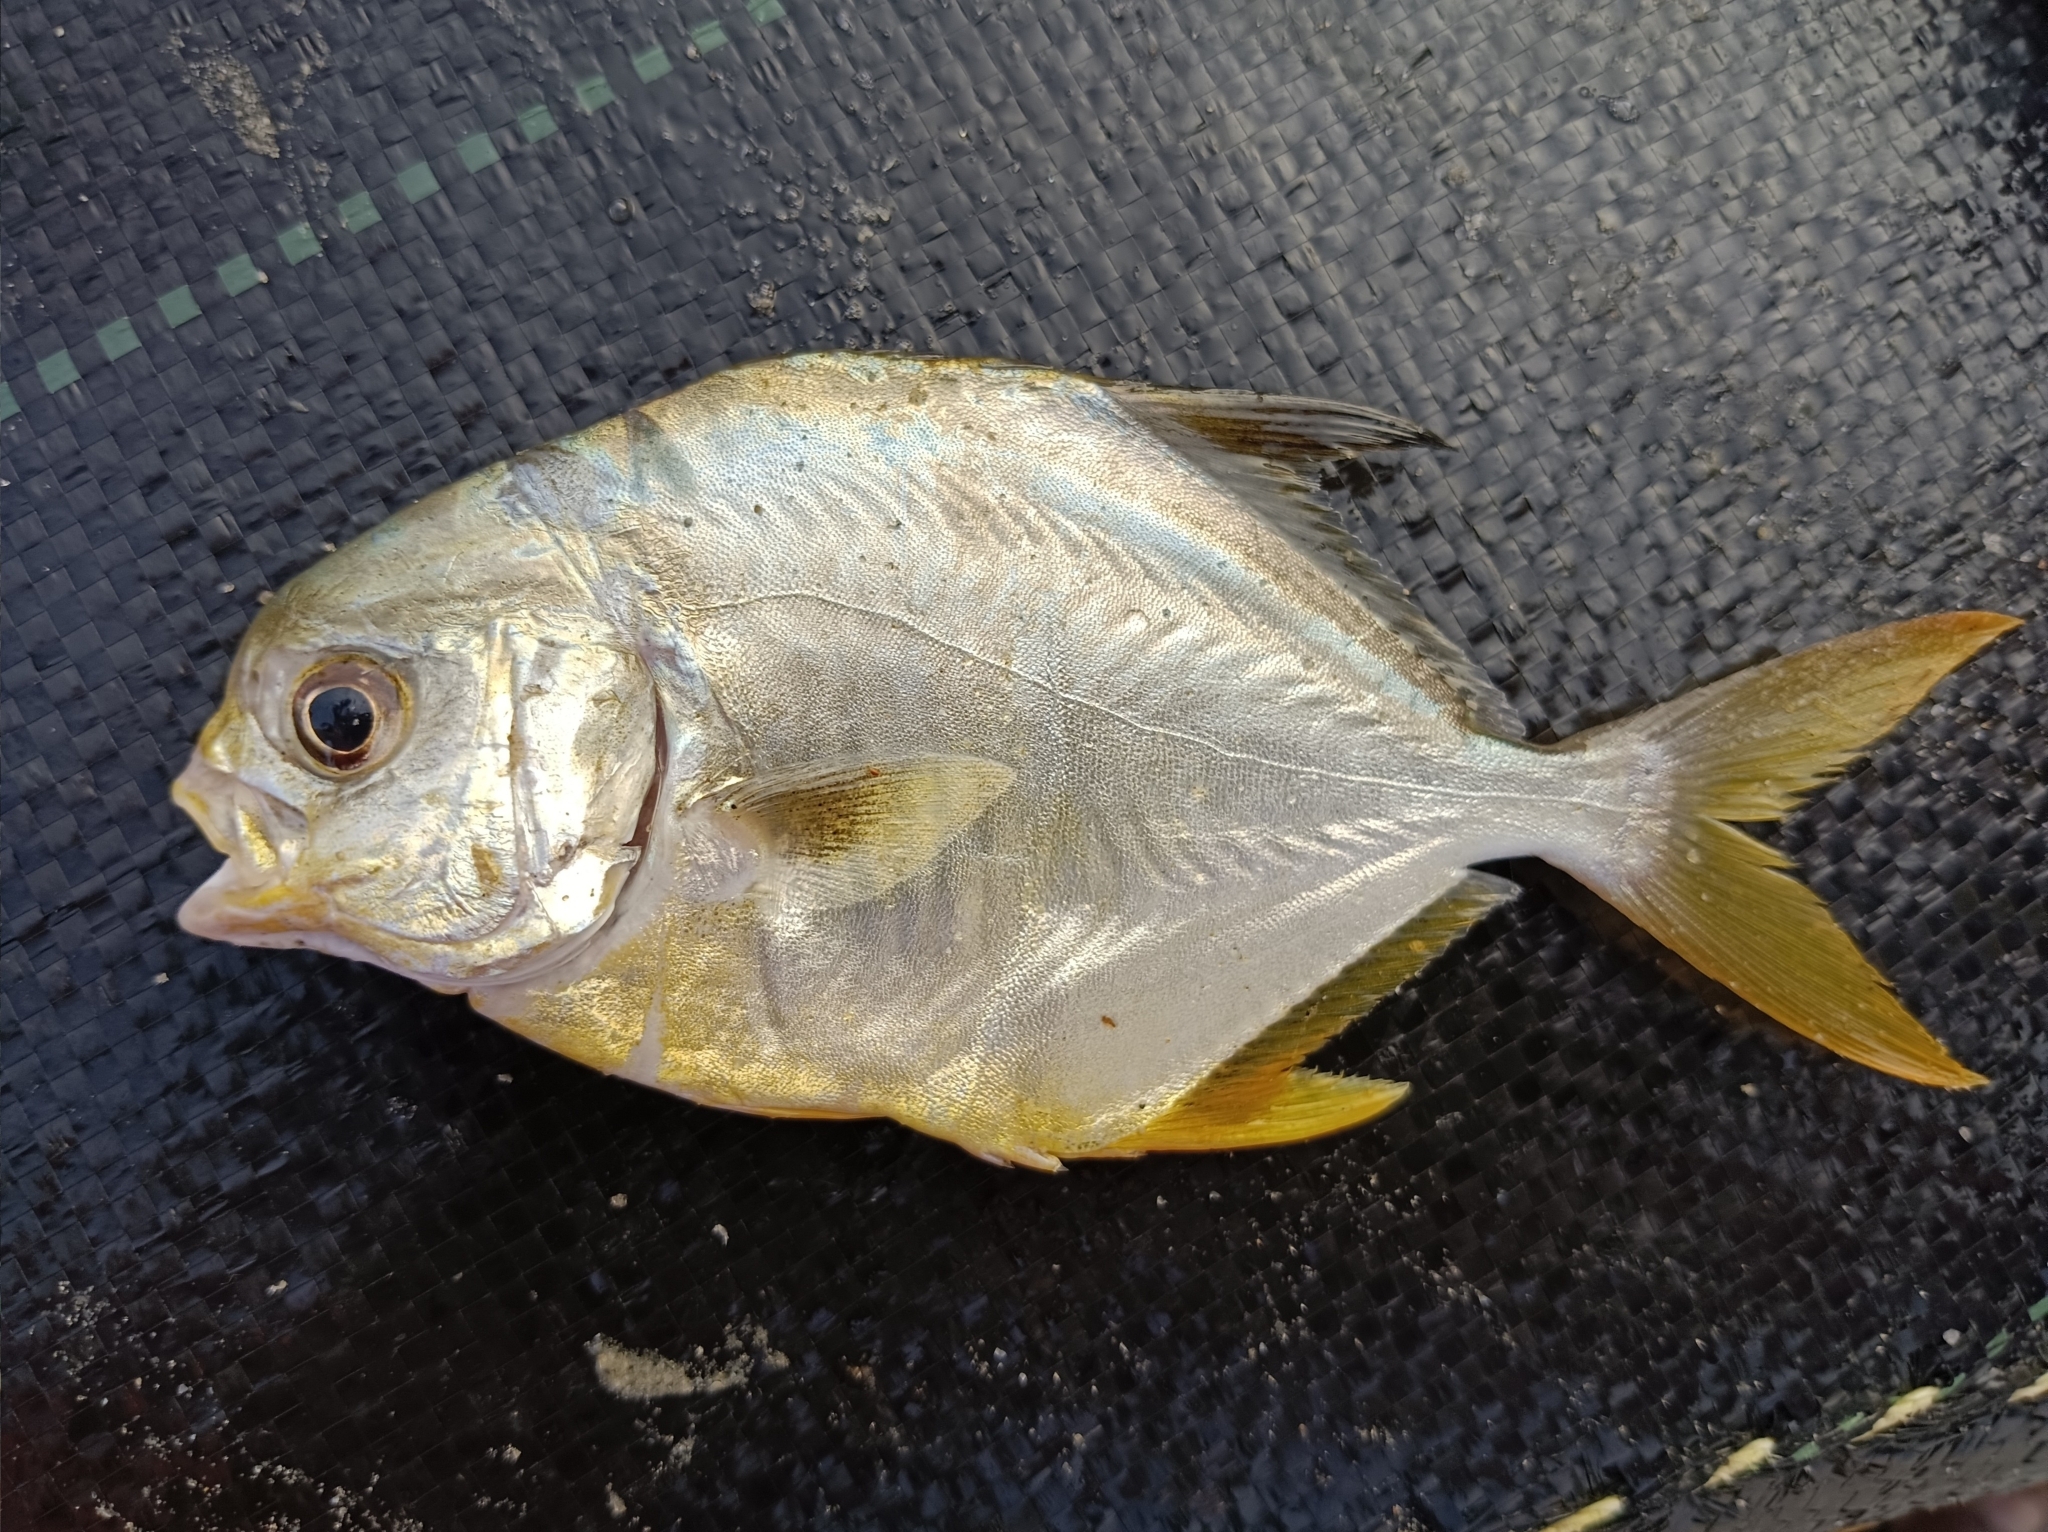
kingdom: Animalia
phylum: Chordata
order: Perciformes
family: Carangidae
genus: Trachinotus
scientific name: Trachinotus mookalee
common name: Indian pompano
